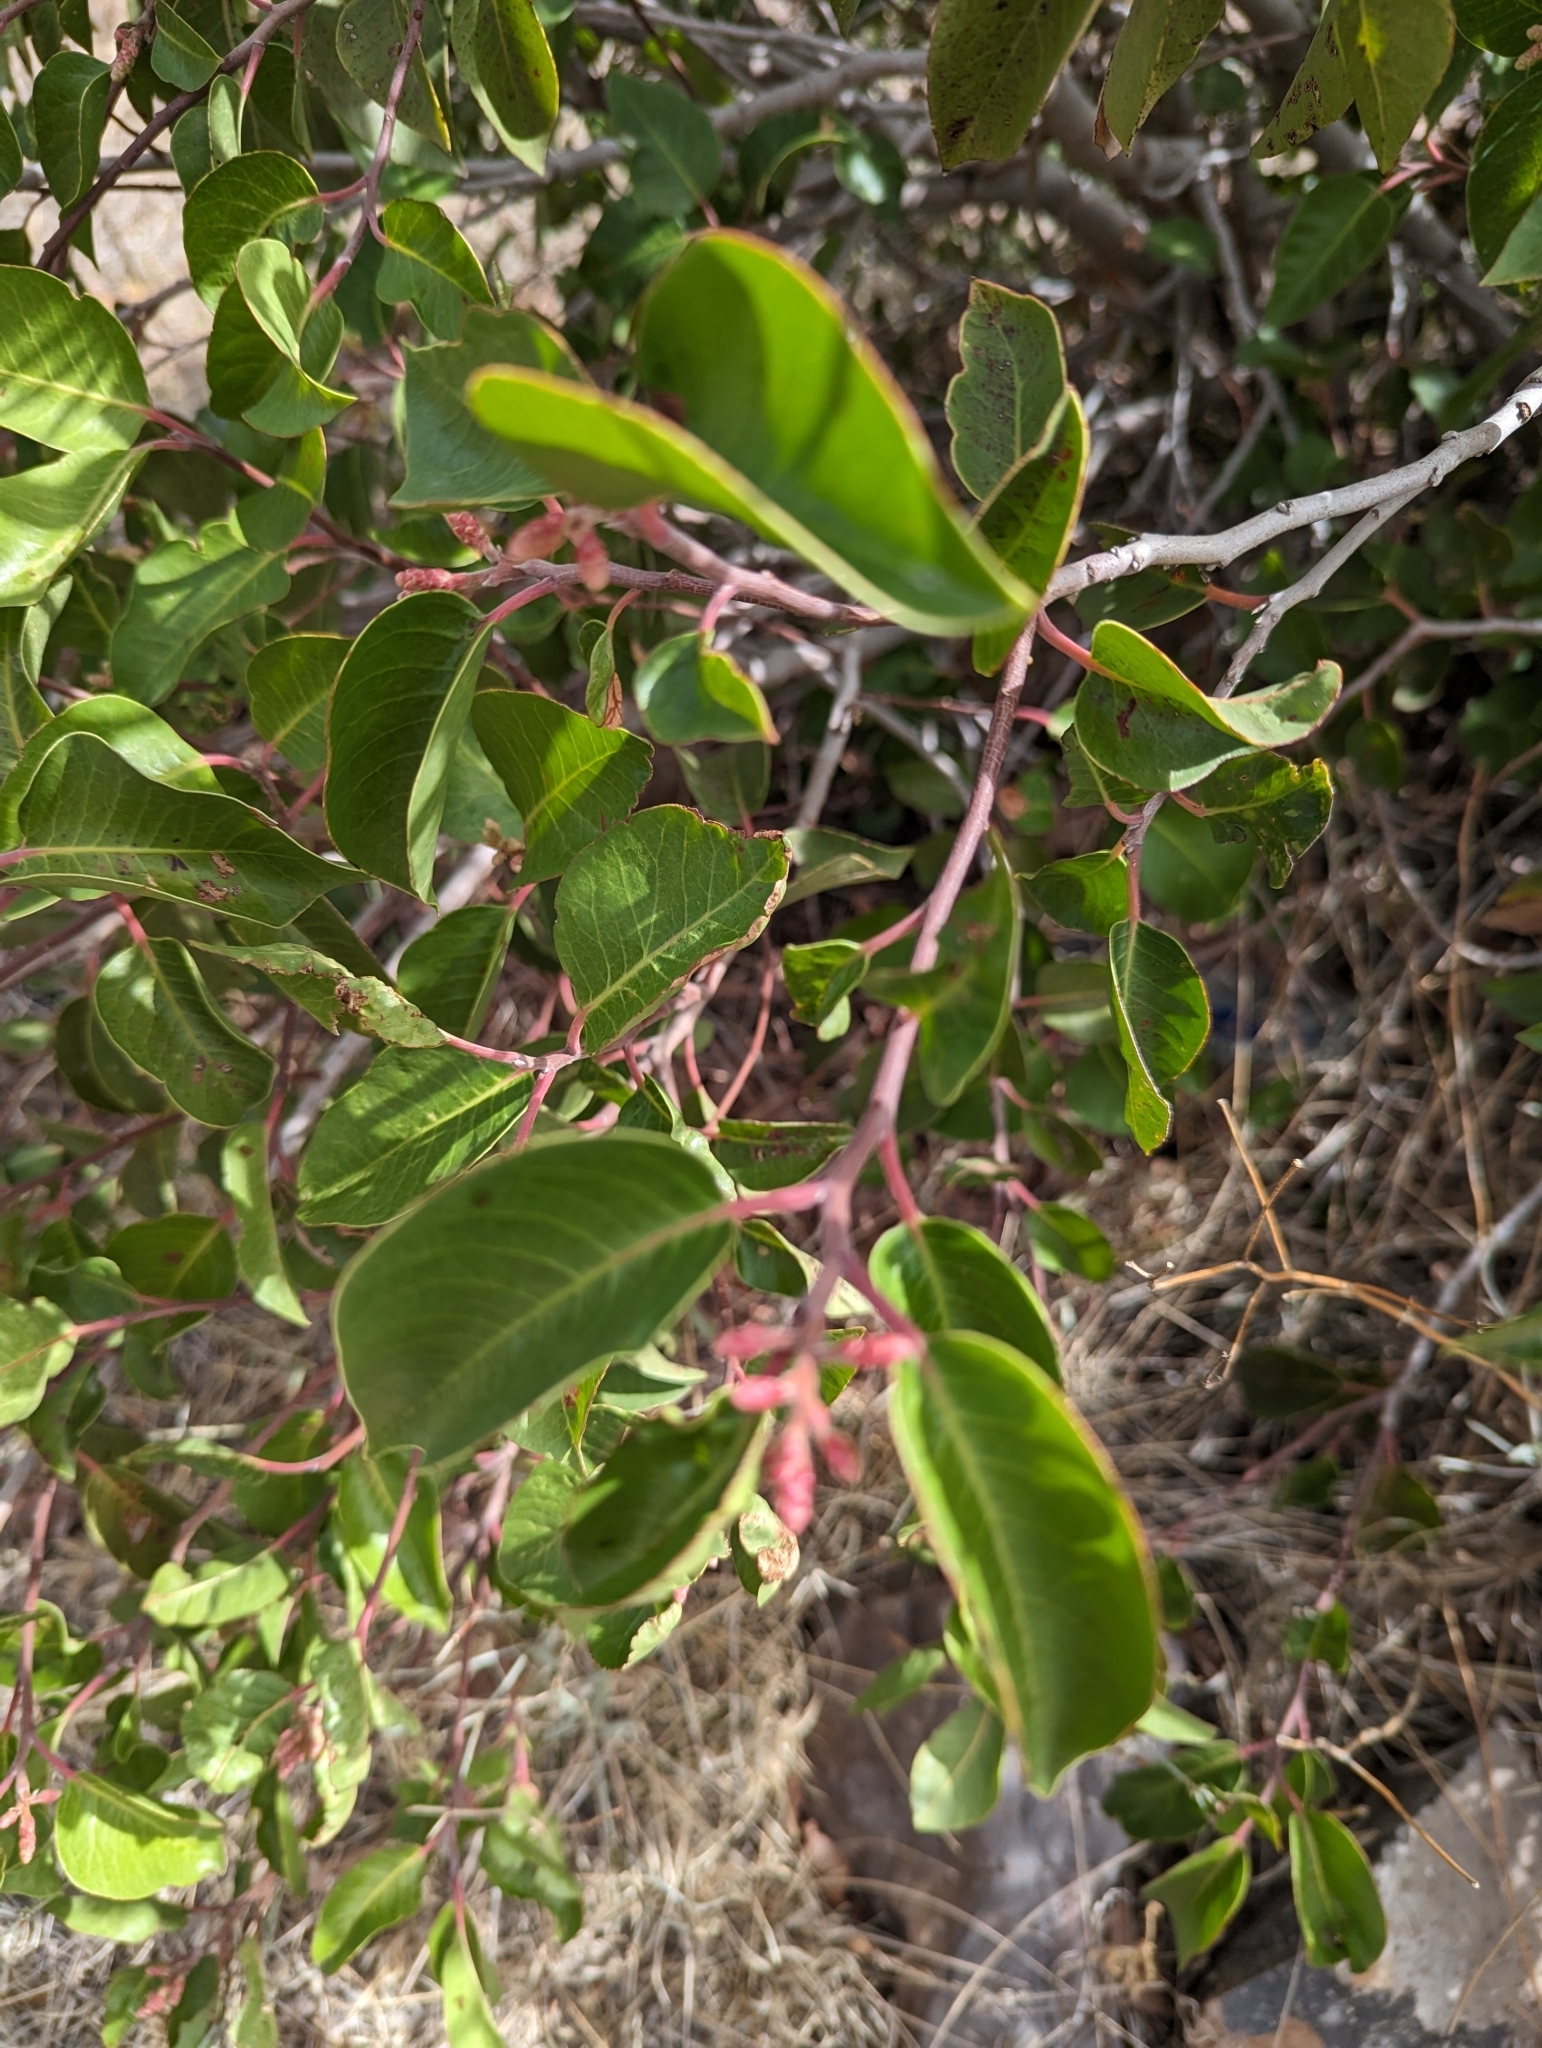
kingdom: Plantae
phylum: Tracheophyta
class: Magnoliopsida
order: Sapindales
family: Anacardiaceae
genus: Rhus
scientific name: Rhus ovata
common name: Sugar sumac
